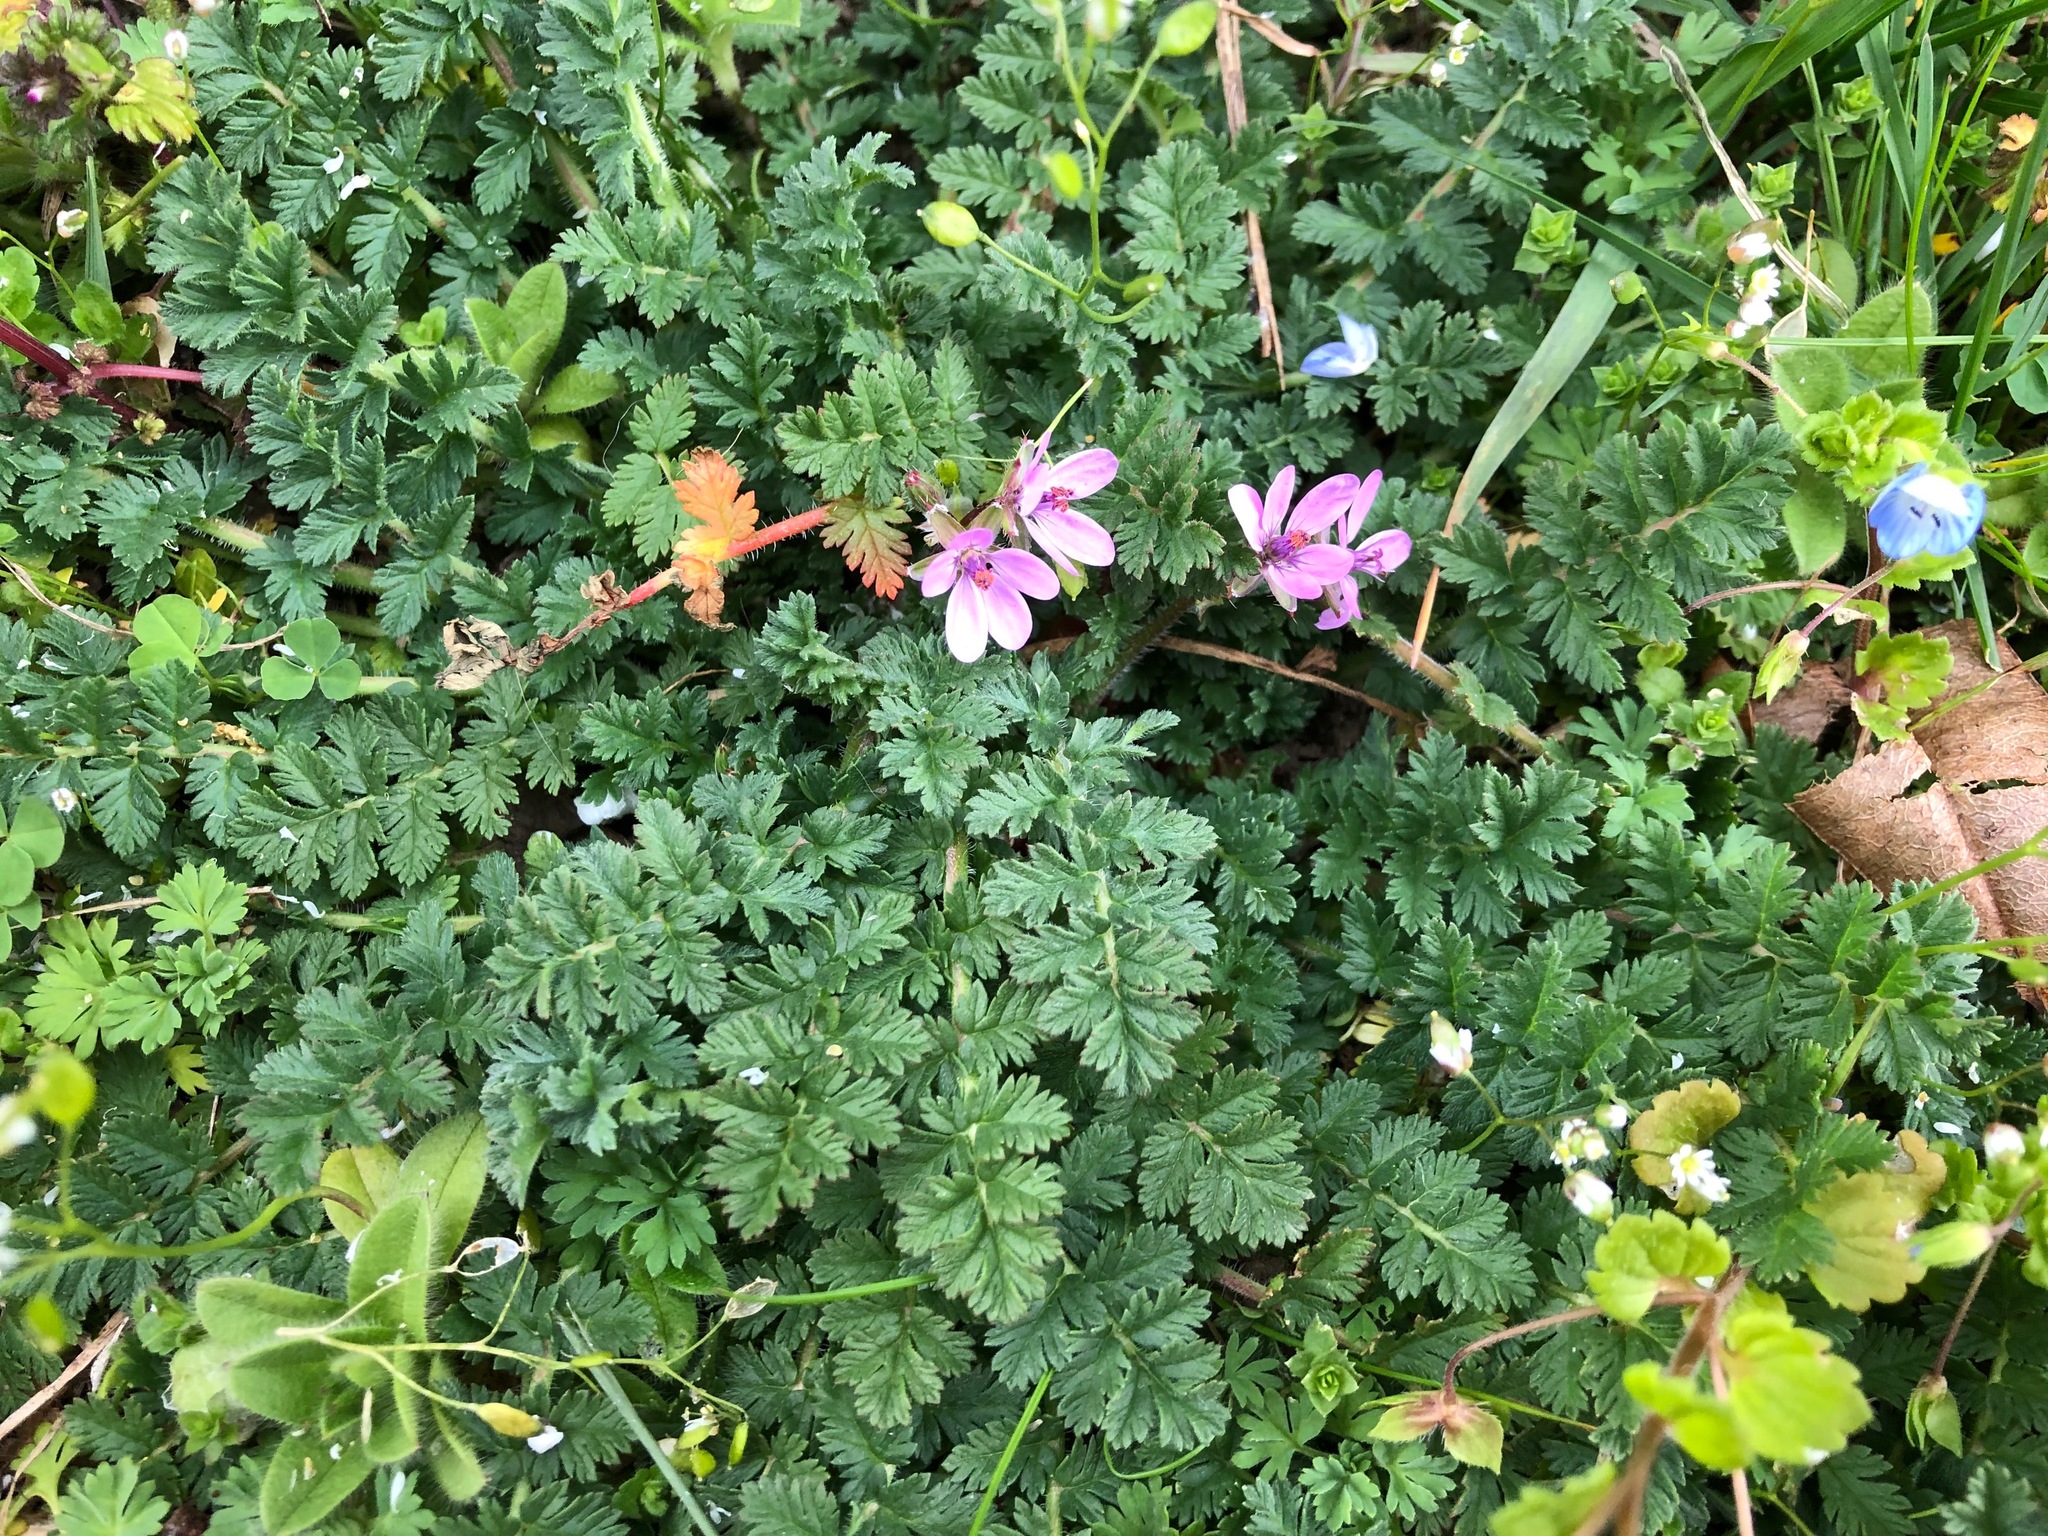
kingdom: Plantae
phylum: Tracheophyta
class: Magnoliopsida
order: Geraniales
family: Geraniaceae
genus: Erodium
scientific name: Erodium cicutarium
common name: Common stork's-bill
